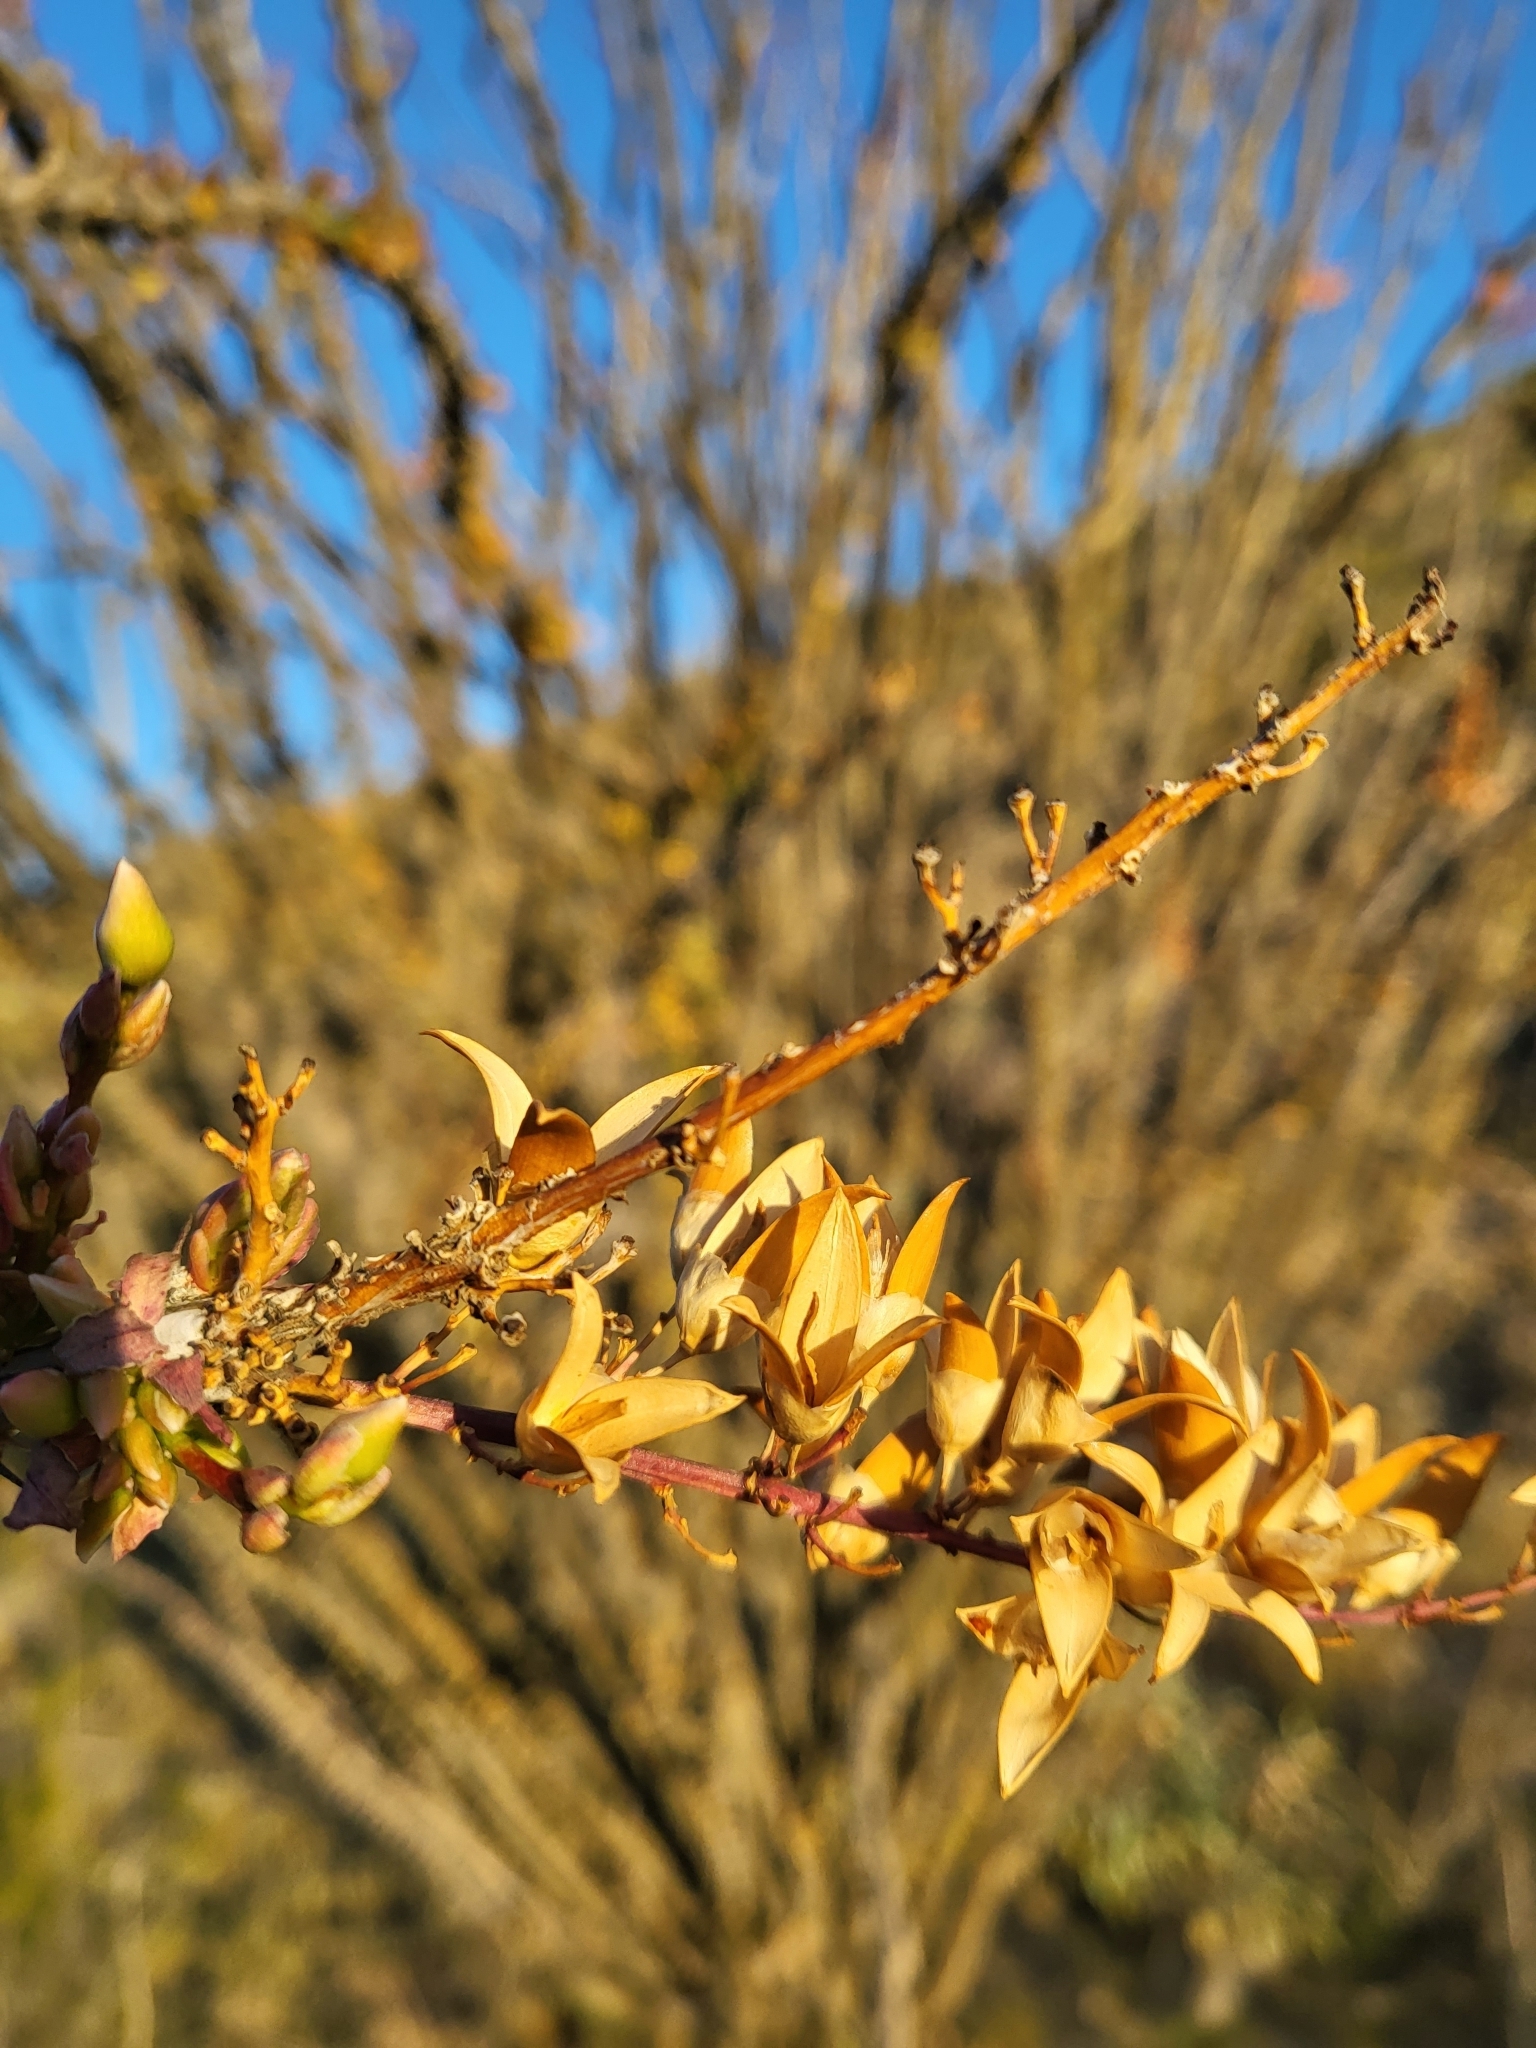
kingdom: Plantae
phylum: Tracheophyta
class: Magnoliopsida
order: Ericales
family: Fouquieriaceae
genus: Fouquieria
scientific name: Fouquieria splendens
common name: Vine-cactus
